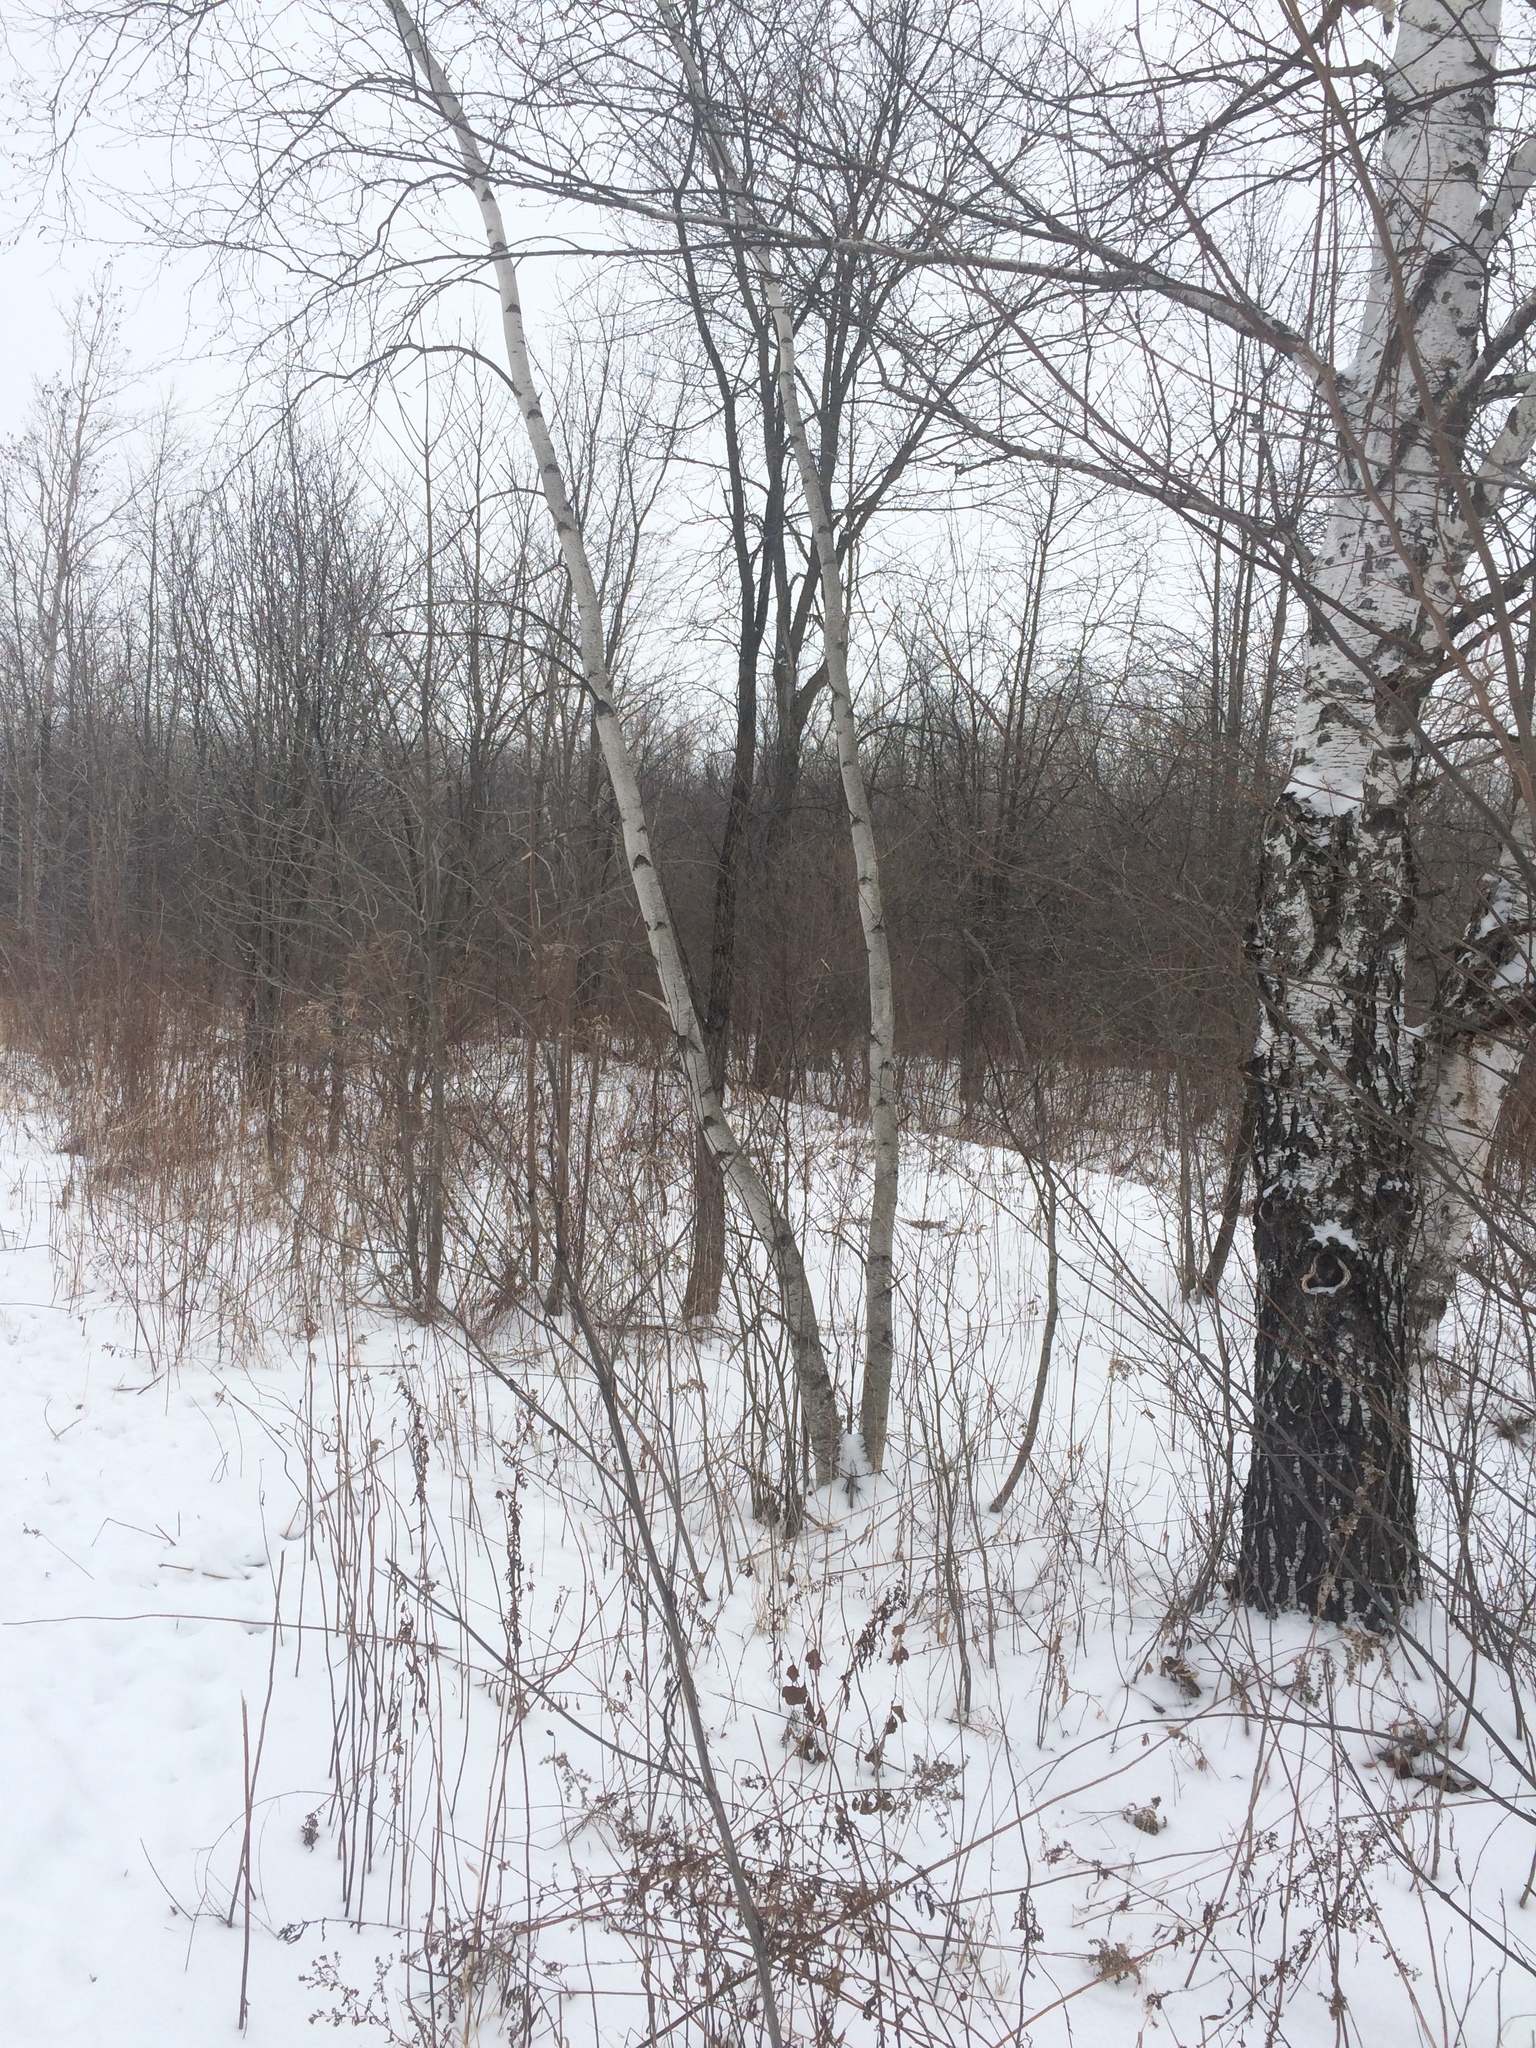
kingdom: Plantae
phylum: Tracheophyta
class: Magnoliopsida
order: Fagales
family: Betulaceae
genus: Betula
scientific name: Betula pendula
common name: Silver birch
